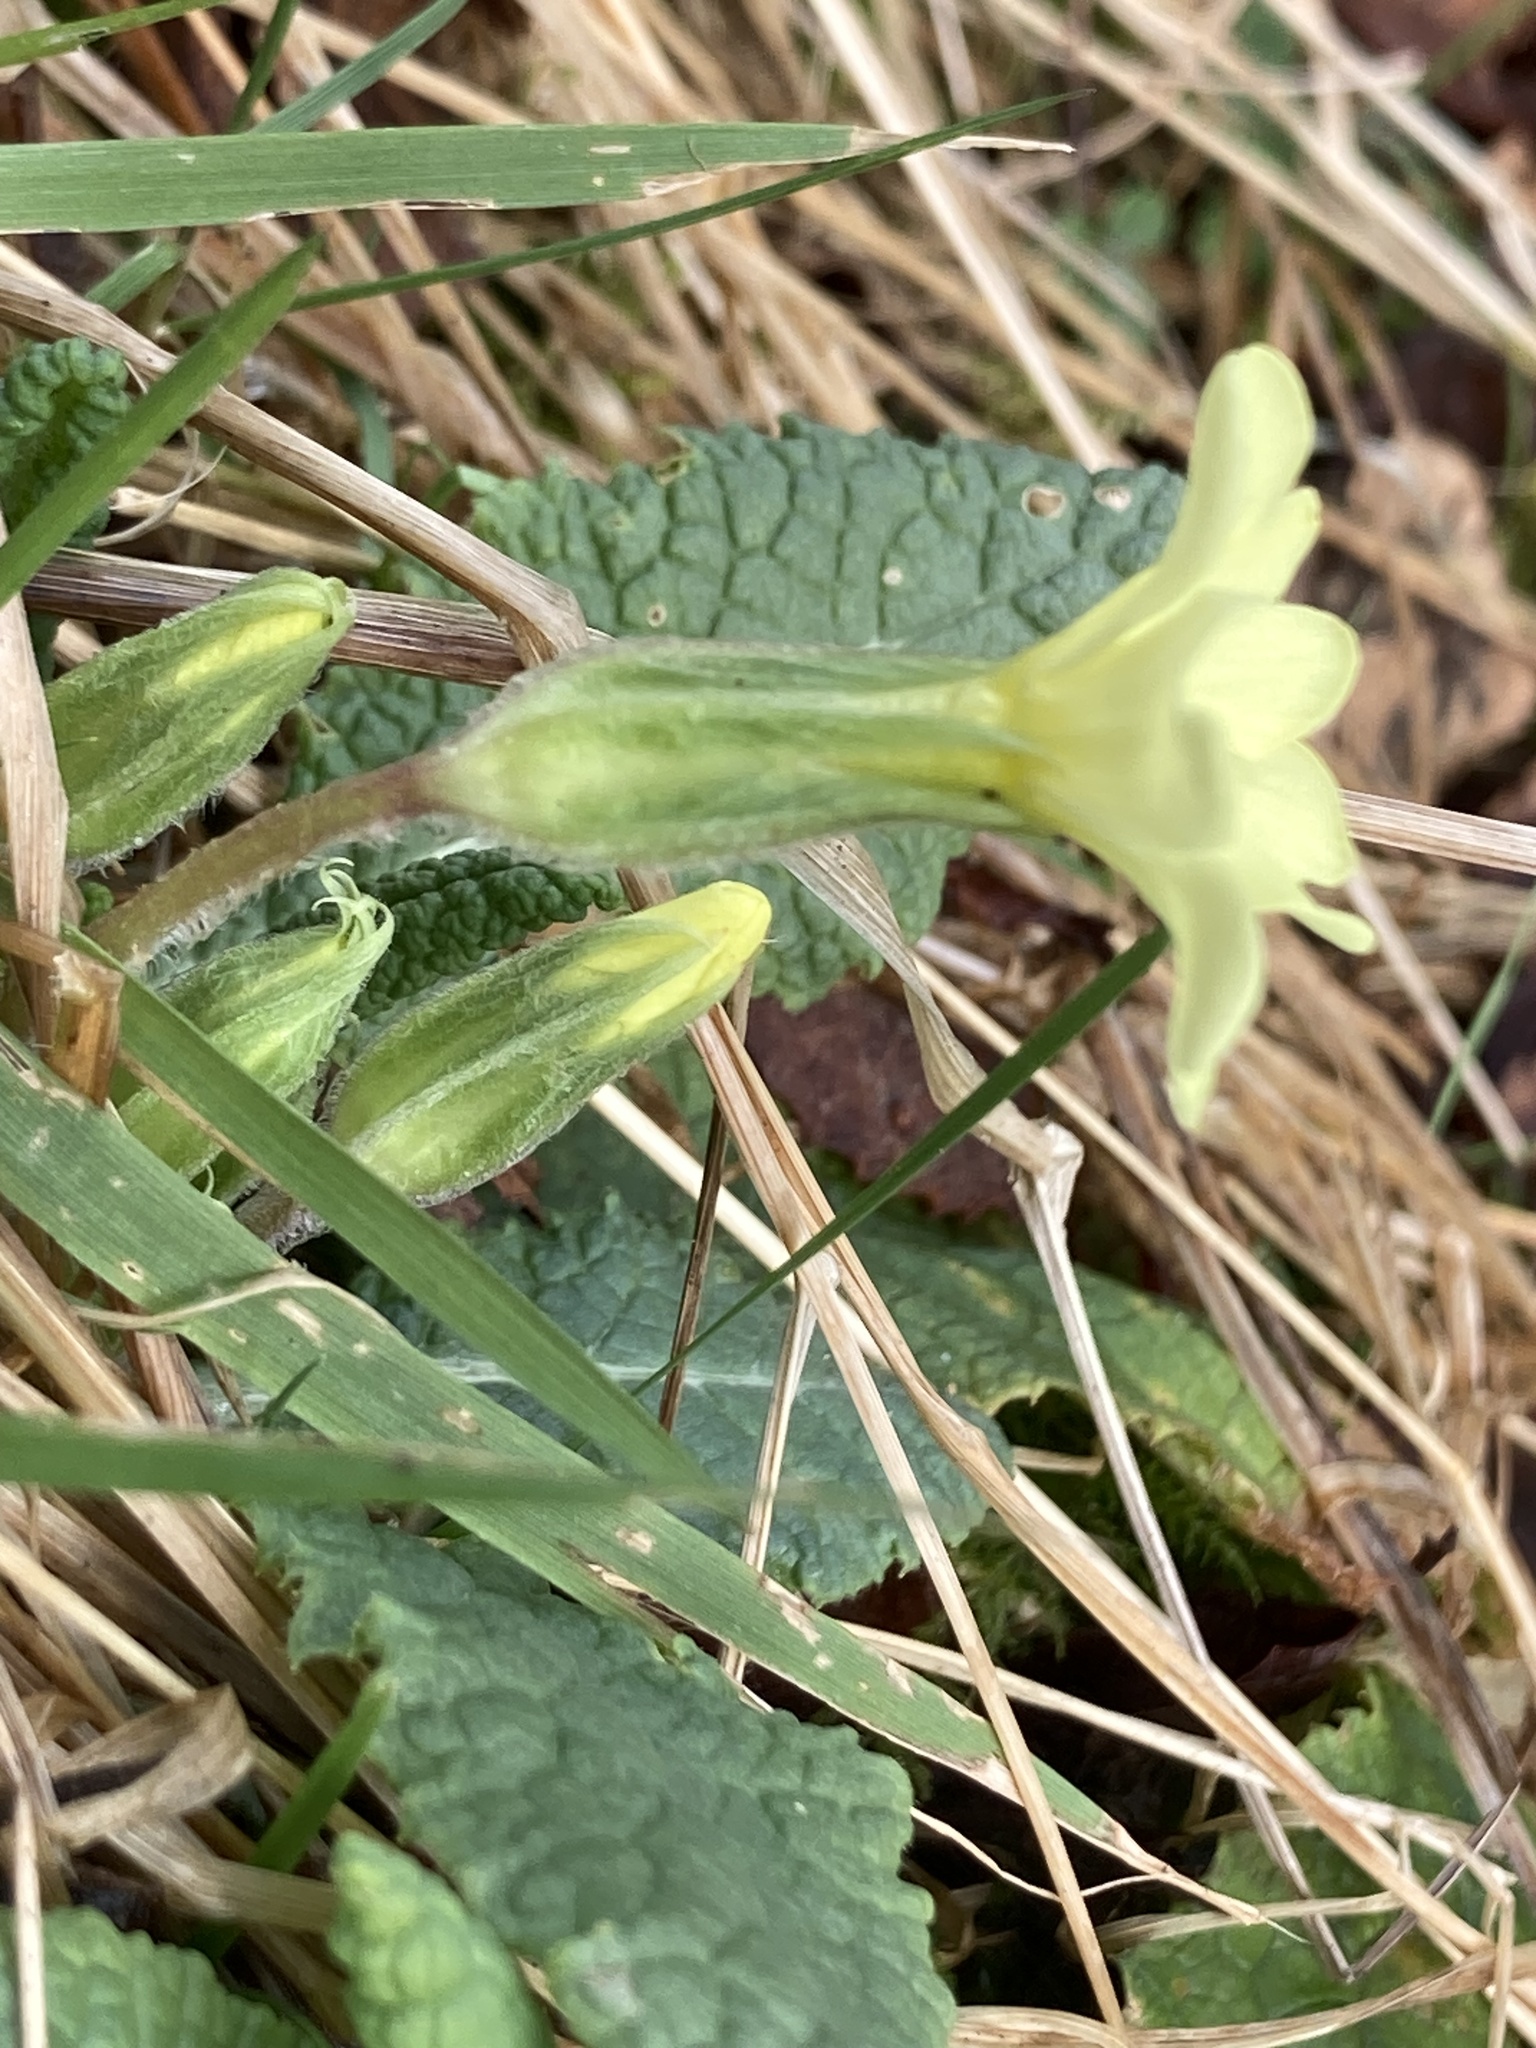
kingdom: Plantae
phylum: Tracheophyta
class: Magnoliopsida
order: Ericales
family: Primulaceae
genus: Primula
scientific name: Primula vulgaris
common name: Primrose
